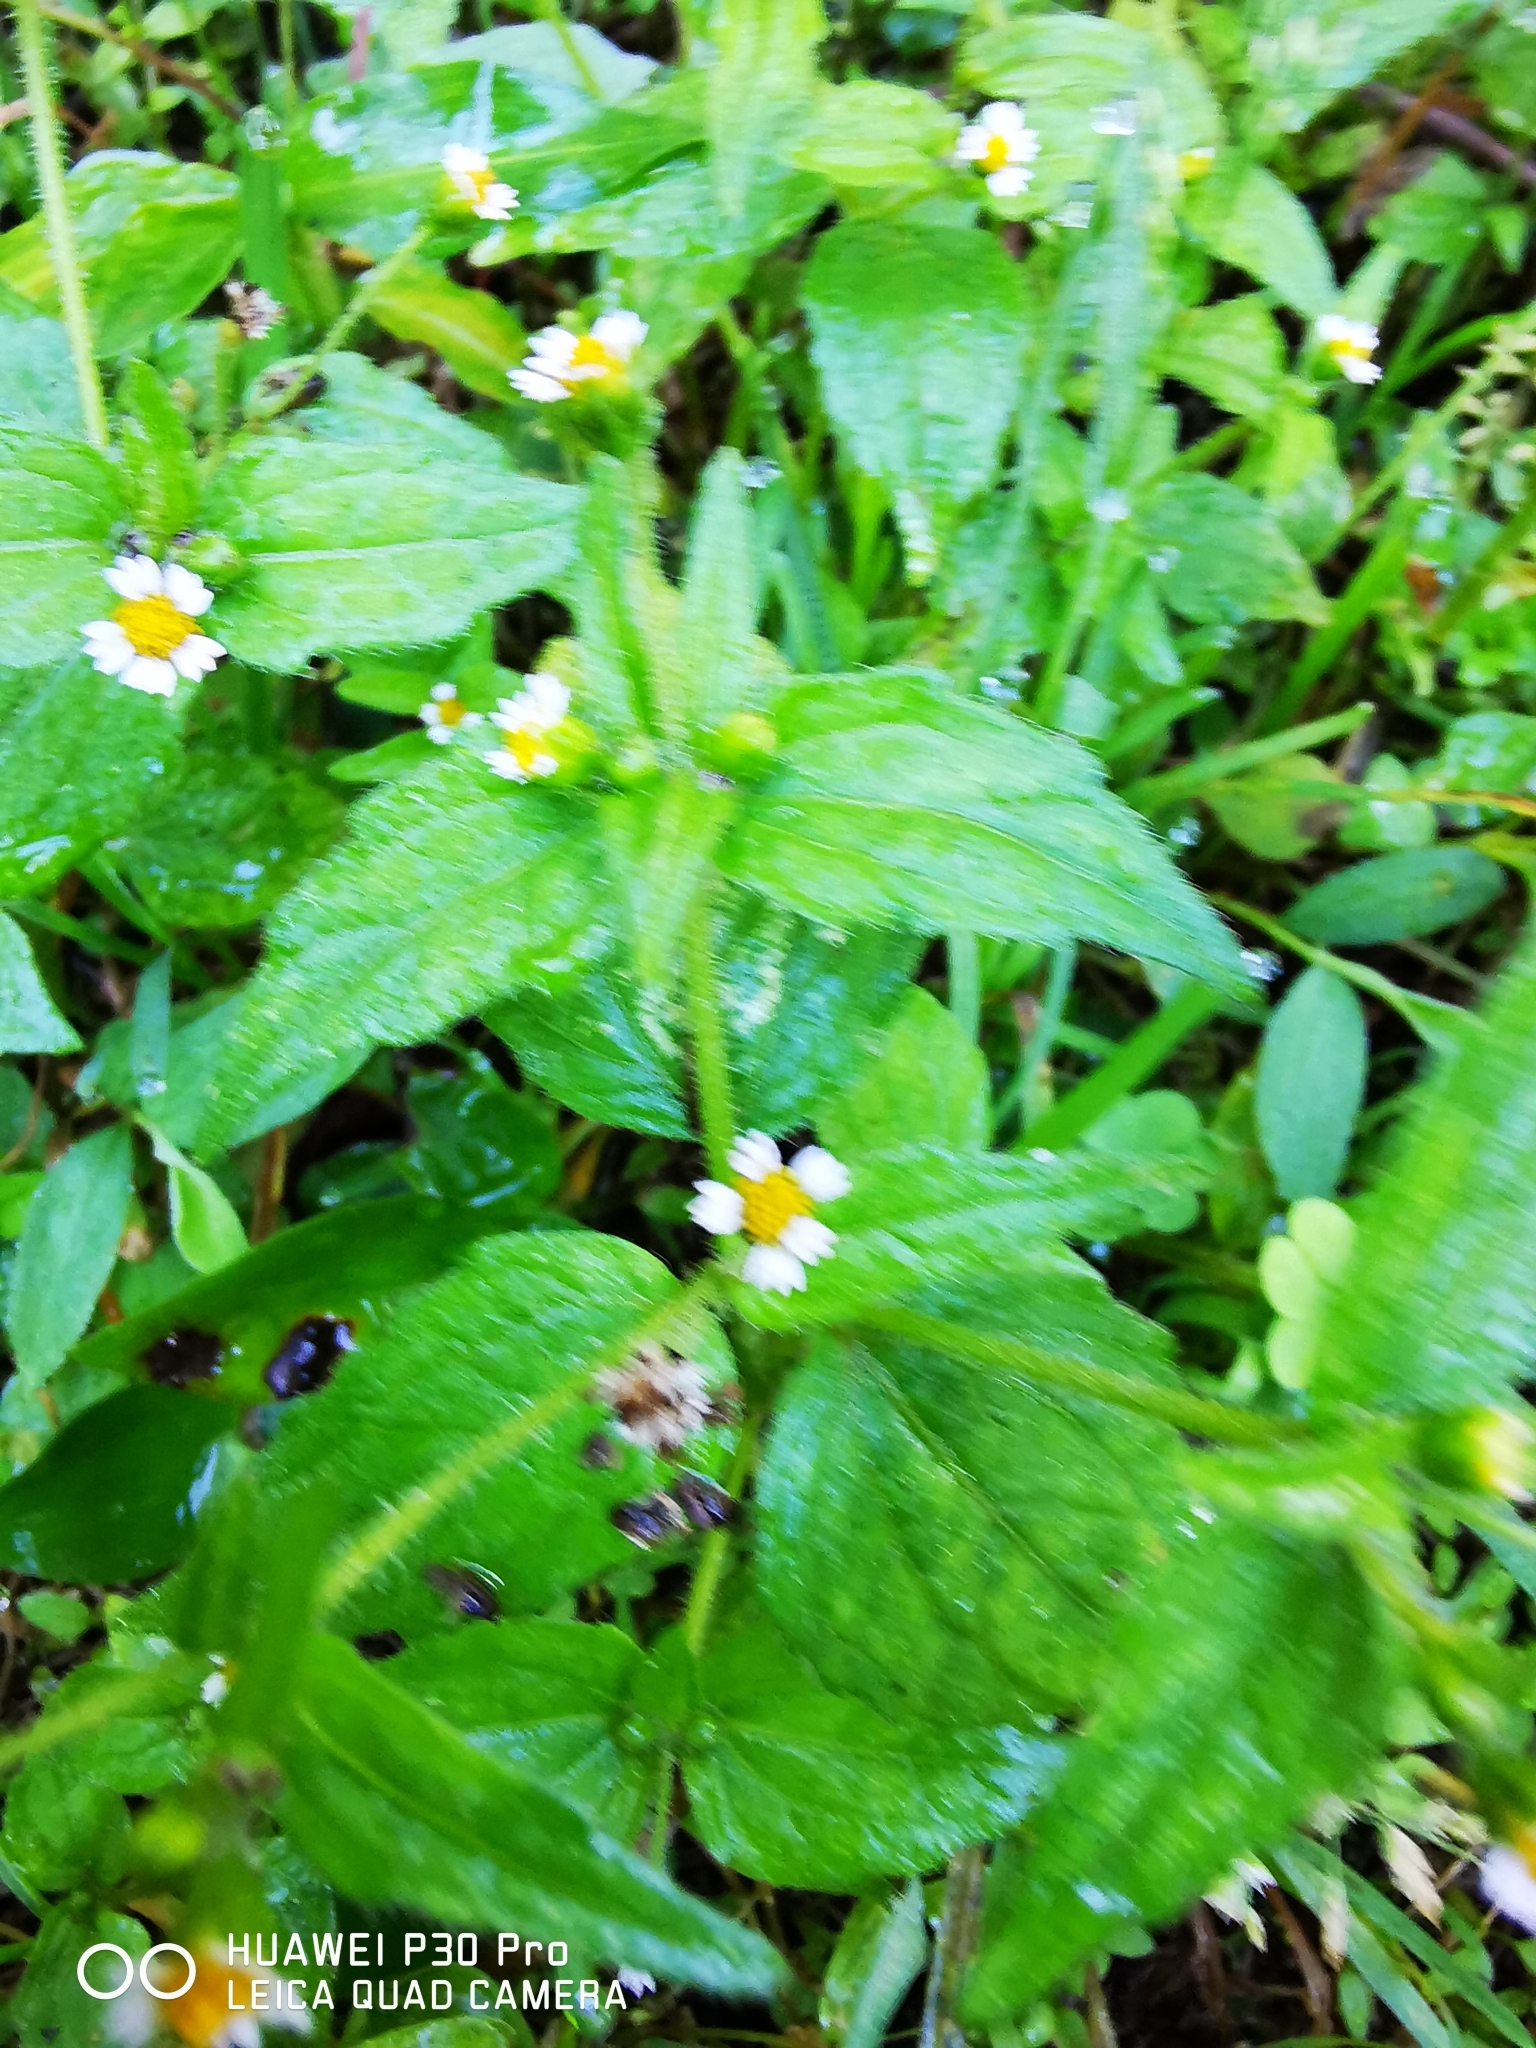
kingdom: Plantae
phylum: Tracheophyta
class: Magnoliopsida
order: Asterales
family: Asteraceae
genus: Galinsoga
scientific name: Galinsoga quadriradiata
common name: Shaggy soldier
